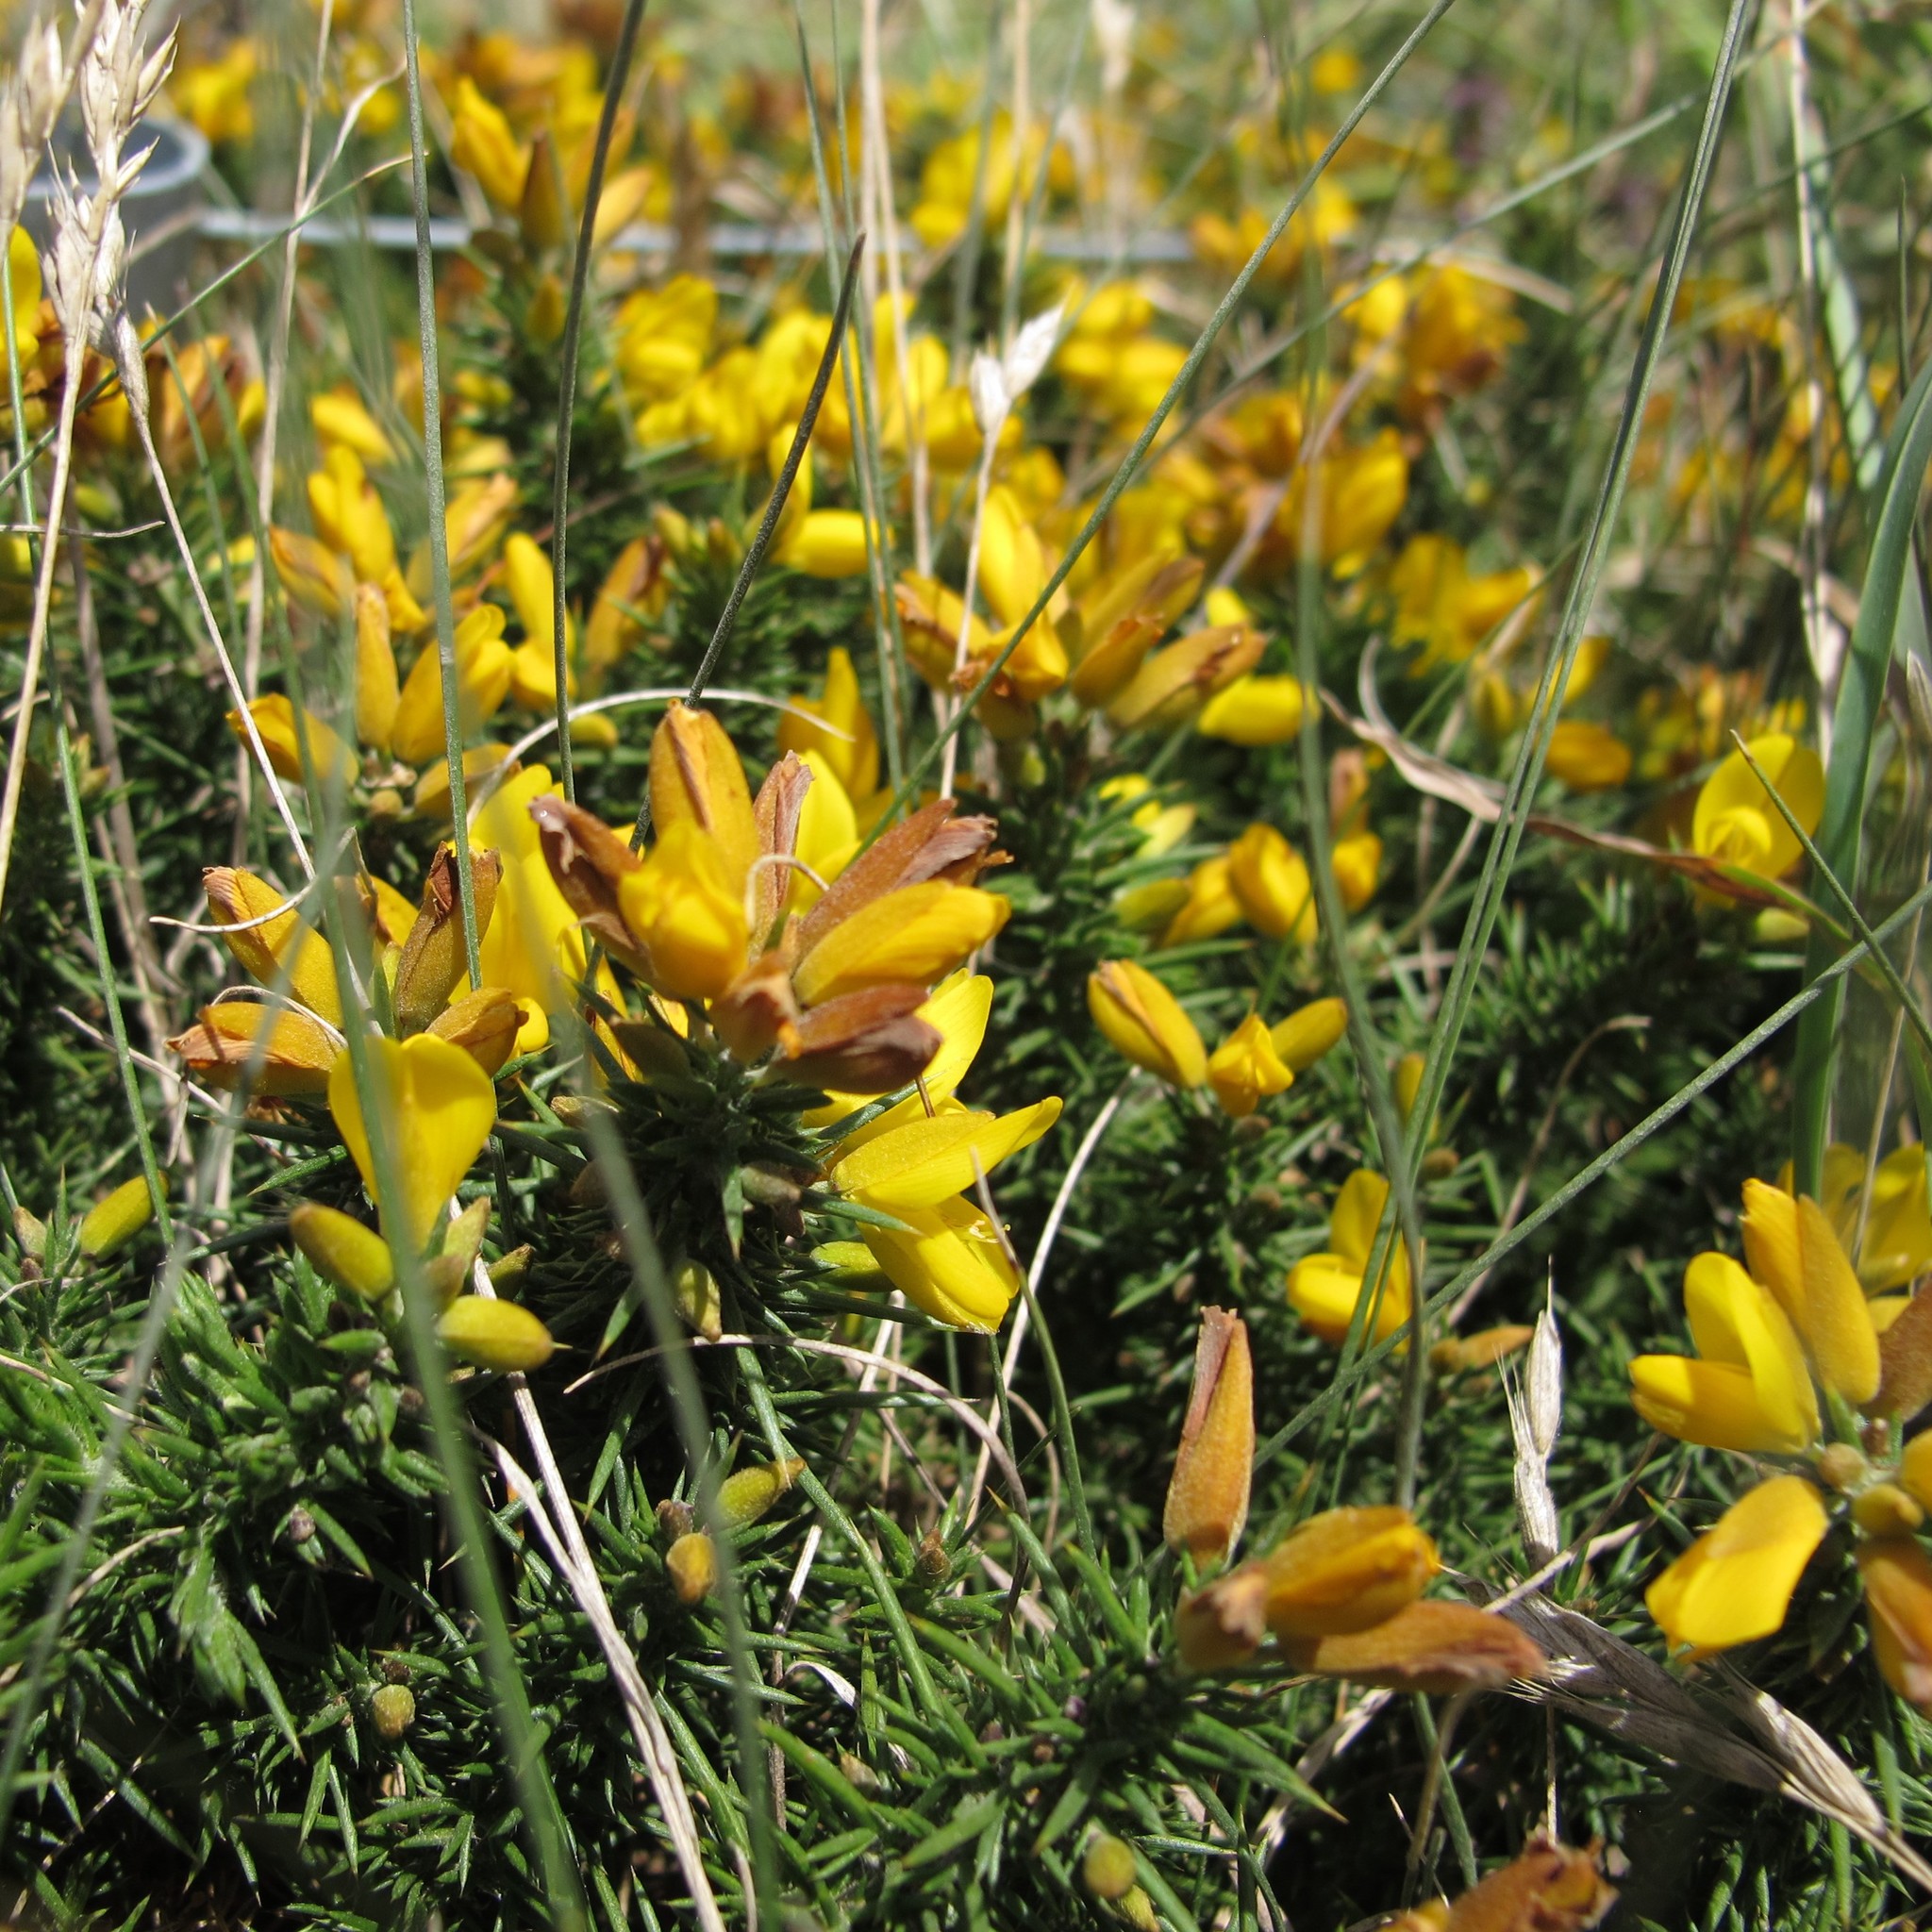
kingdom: Plantae
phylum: Tracheophyta
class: Magnoliopsida
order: Fabales
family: Fabaceae
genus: Ulex
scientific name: Ulex europaeus
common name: Common gorse
